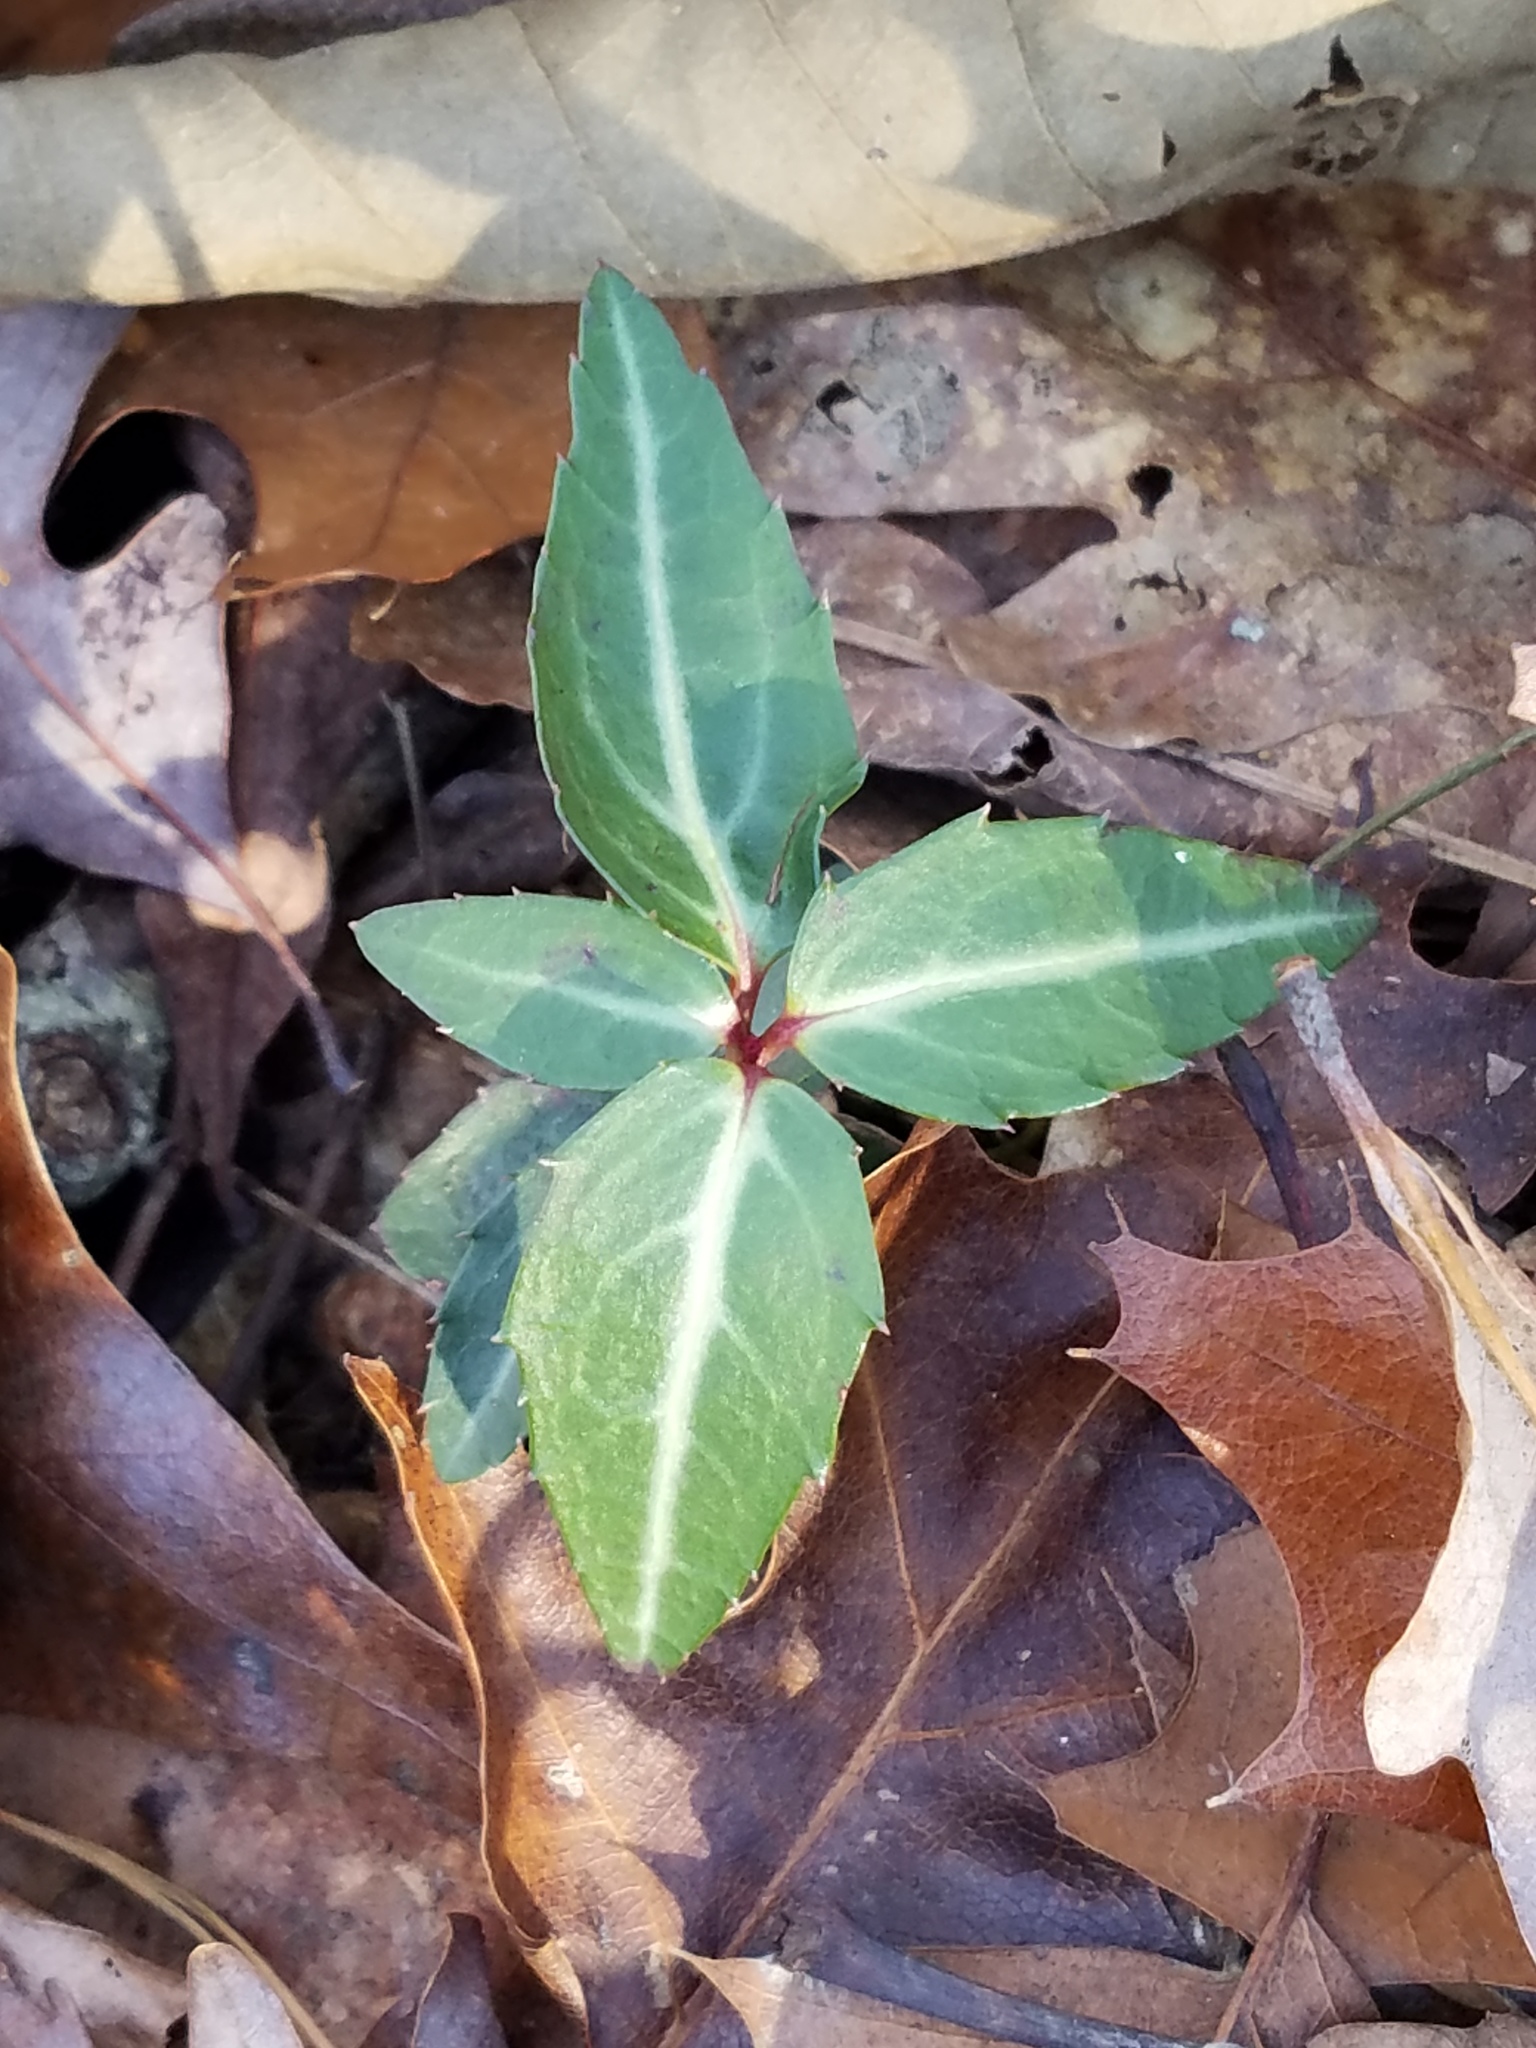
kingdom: Plantae
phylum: Tracheophyta
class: Magnoliopsida
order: Ericales
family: Ericaceae
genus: Chimaphila
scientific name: Chimaphila maculata
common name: Spotted pipsissewa
